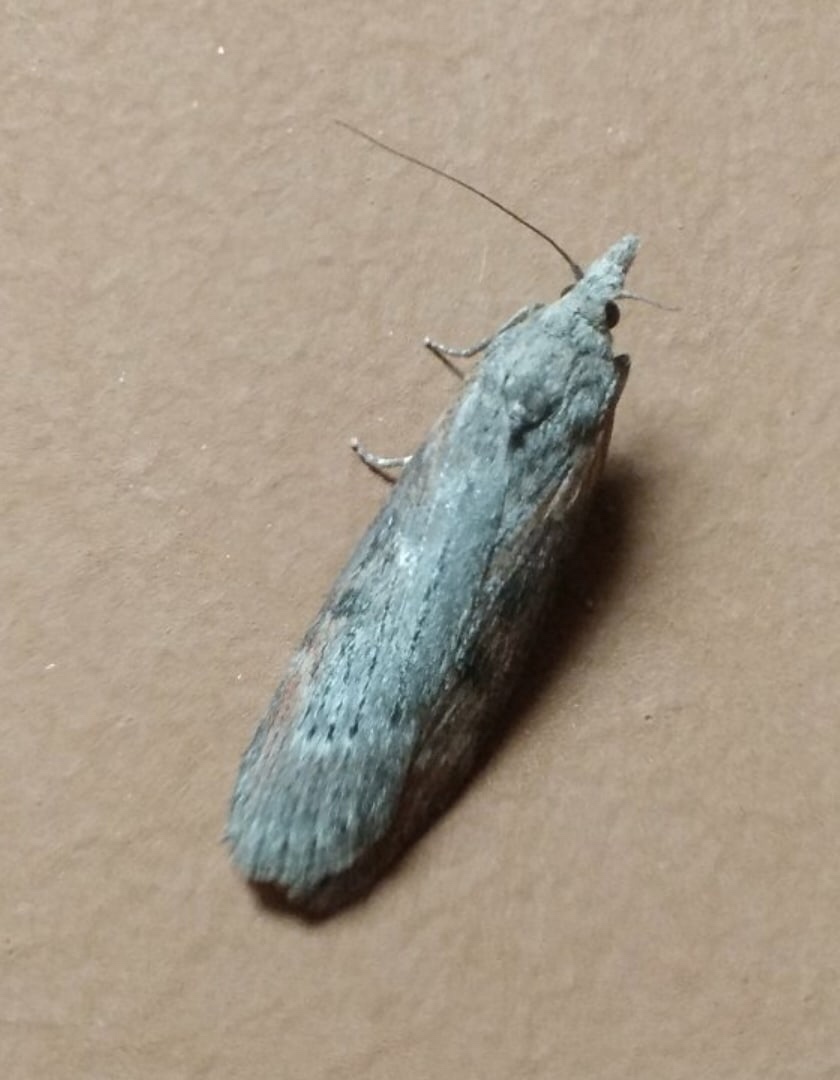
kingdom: Animalia
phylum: Arthropoda
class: Insecta
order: Lepidoptera
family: Pyralidae
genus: Lamoria
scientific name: Lamoria anella
